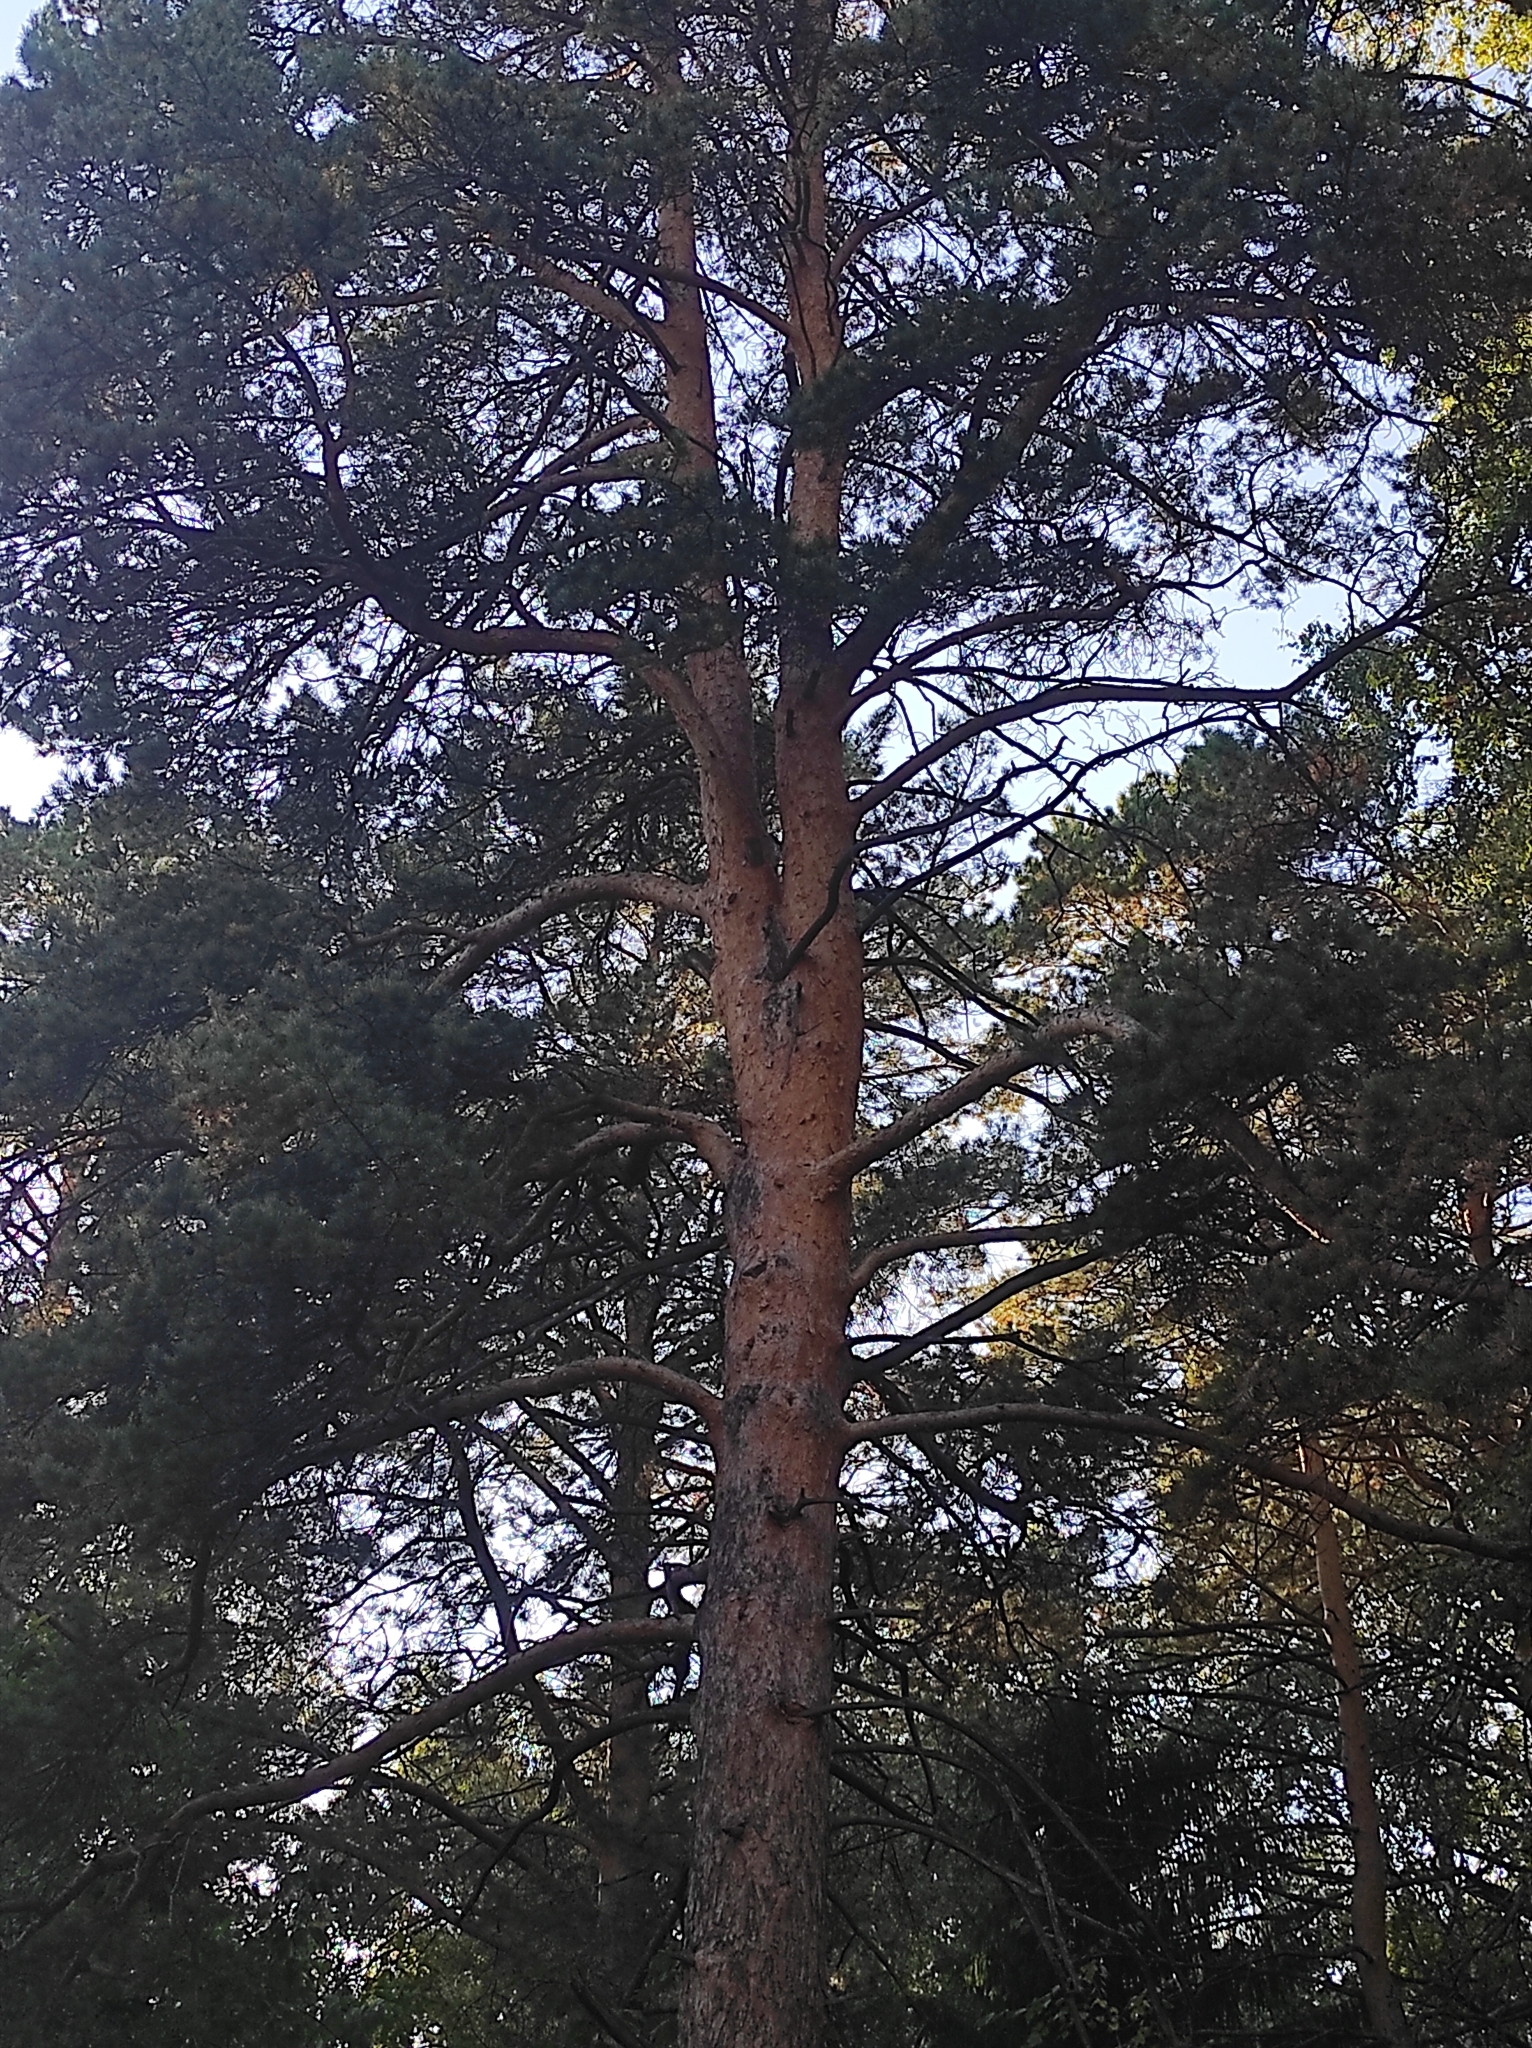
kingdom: Plantae
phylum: Tracheophyta
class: Pinopsida
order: Pinales
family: Pinaceae
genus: Pinus
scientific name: Pinus sylvestris
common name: Scots pine
